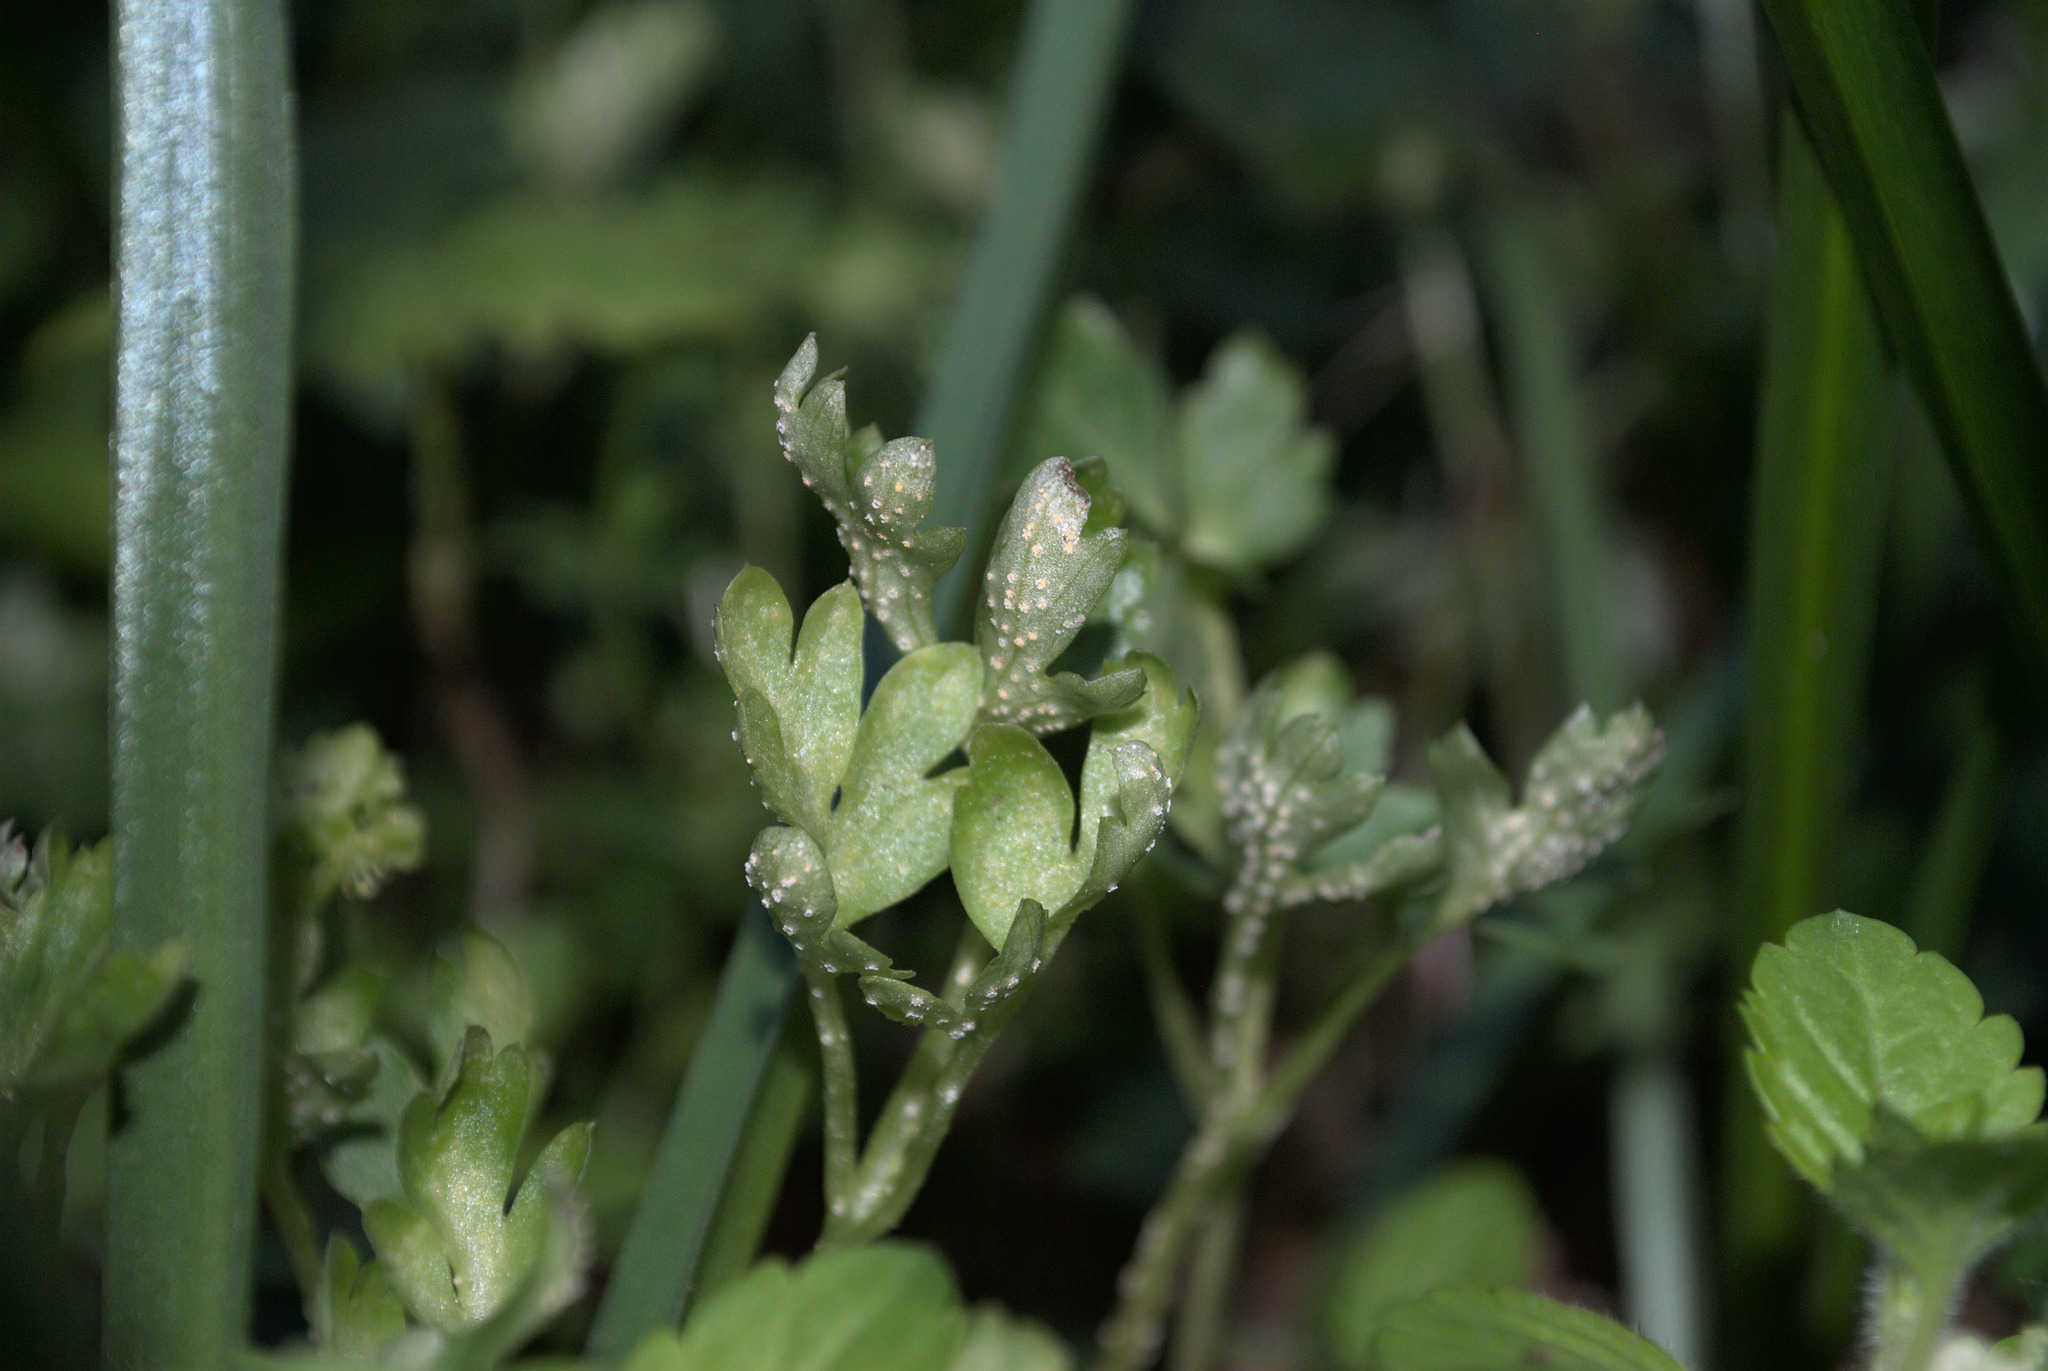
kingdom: Fungi
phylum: Basidiomycota
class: Pucciniomycetes
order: Pucciniales
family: Pucciniaceae
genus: Puccinia
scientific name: Puccinia albescens
